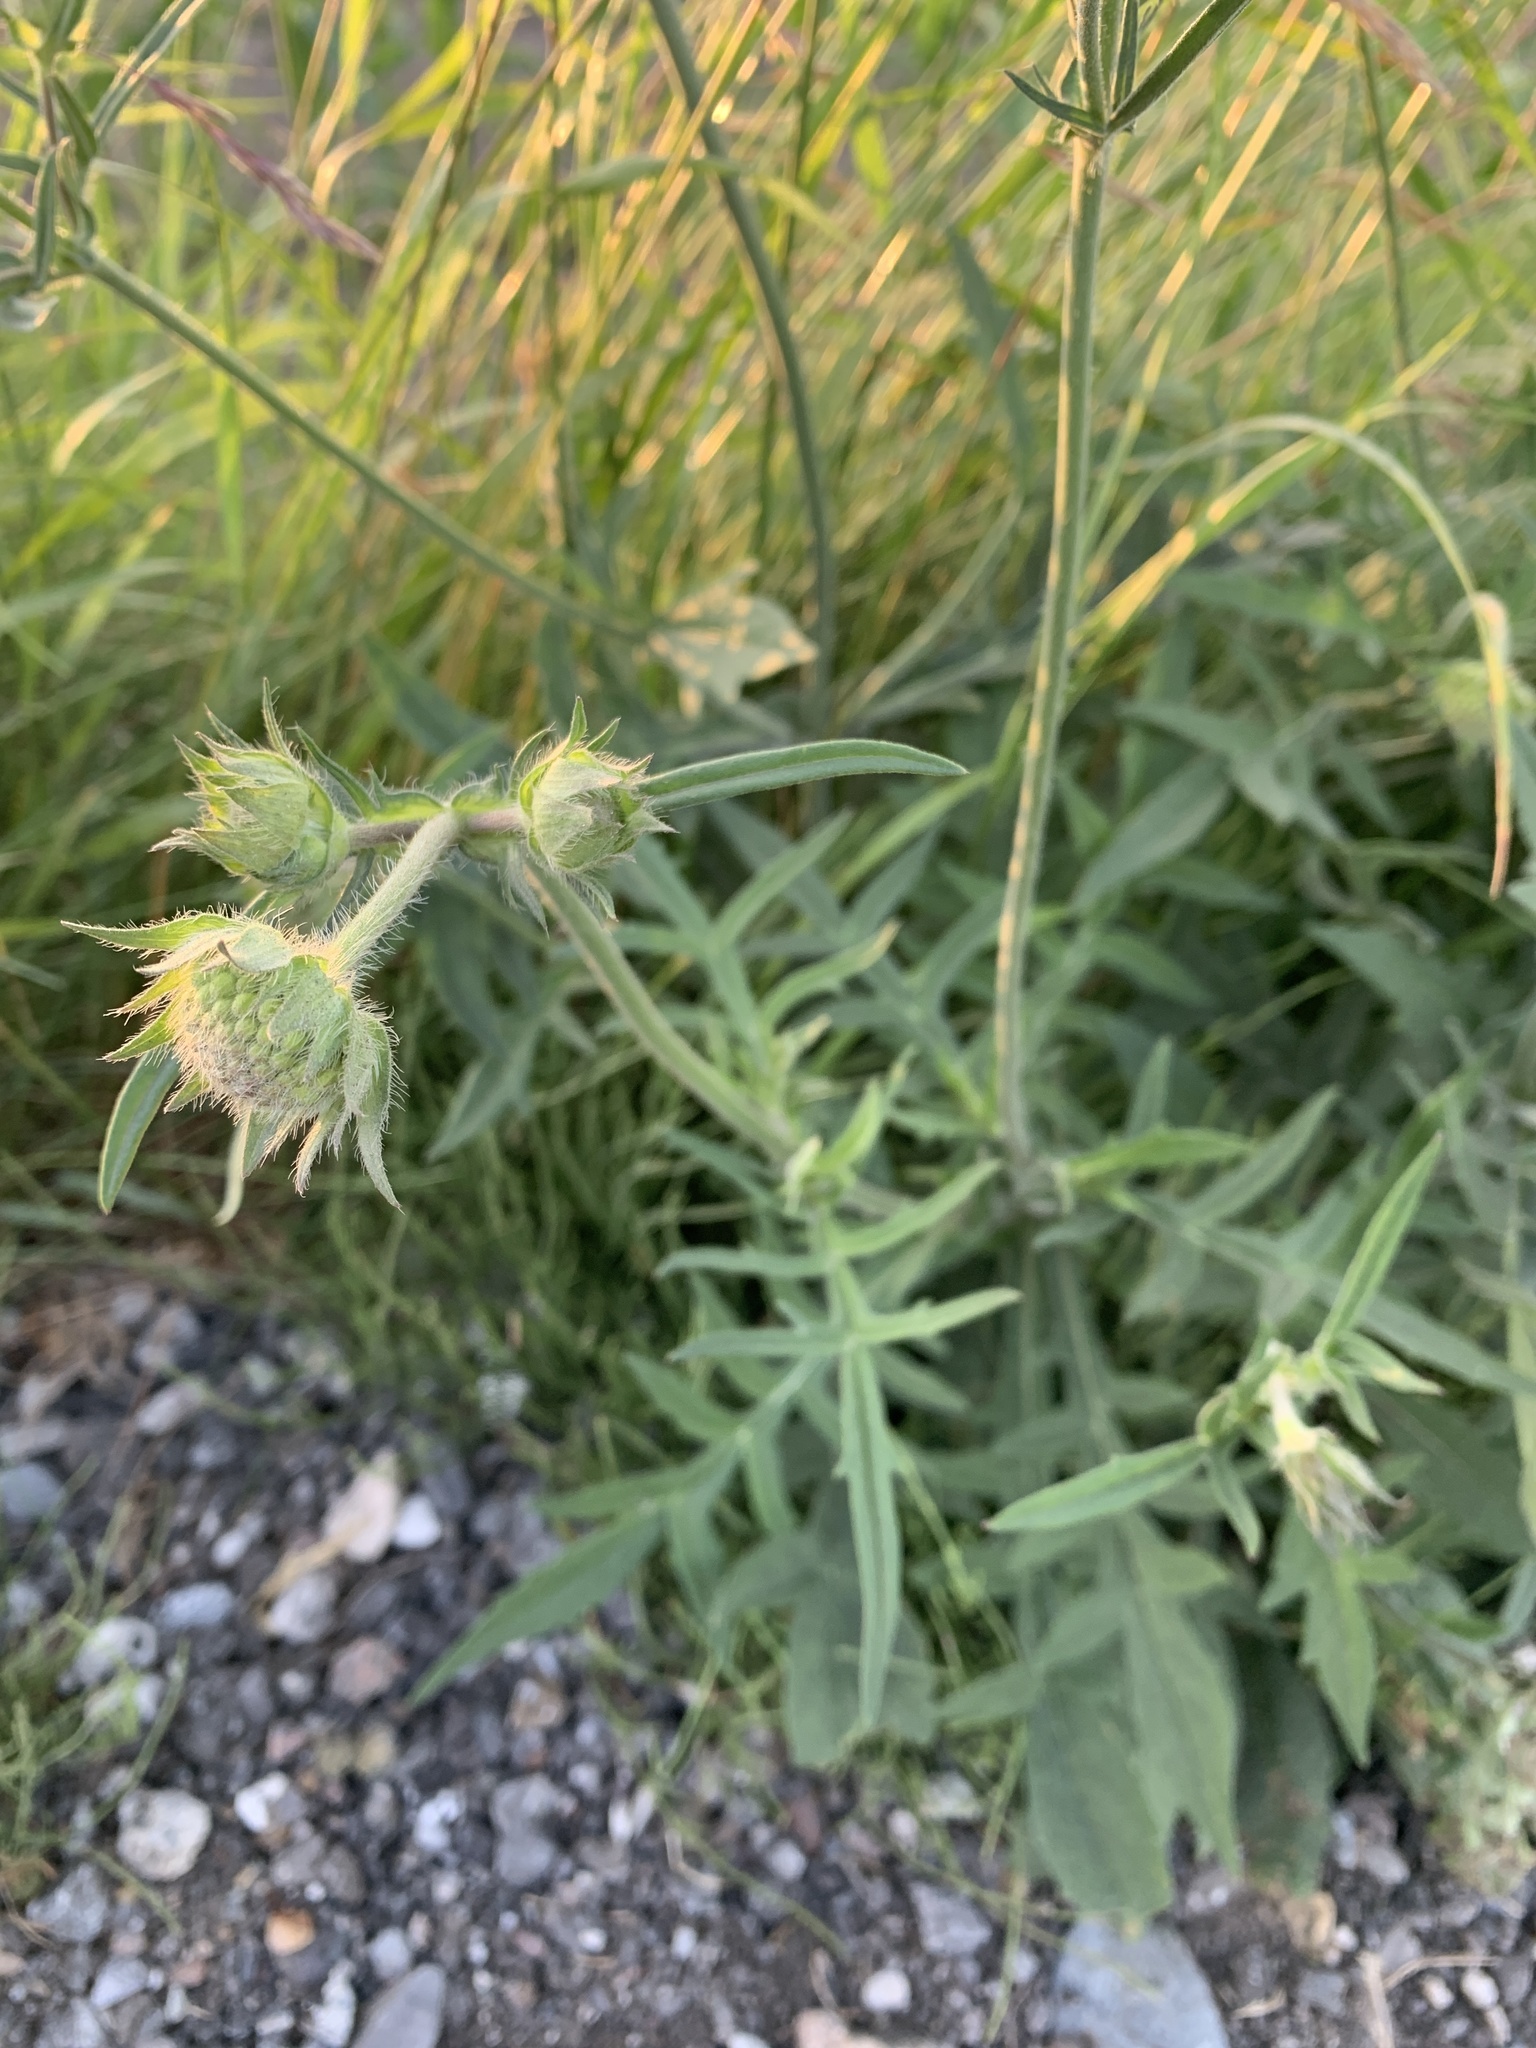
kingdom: Plantae
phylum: Tracheophyta
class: Magnoliopsida
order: Dipsacales
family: Caprifoliaceae
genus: Knautia
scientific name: Knautia arvensis
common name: Field scabiosa
